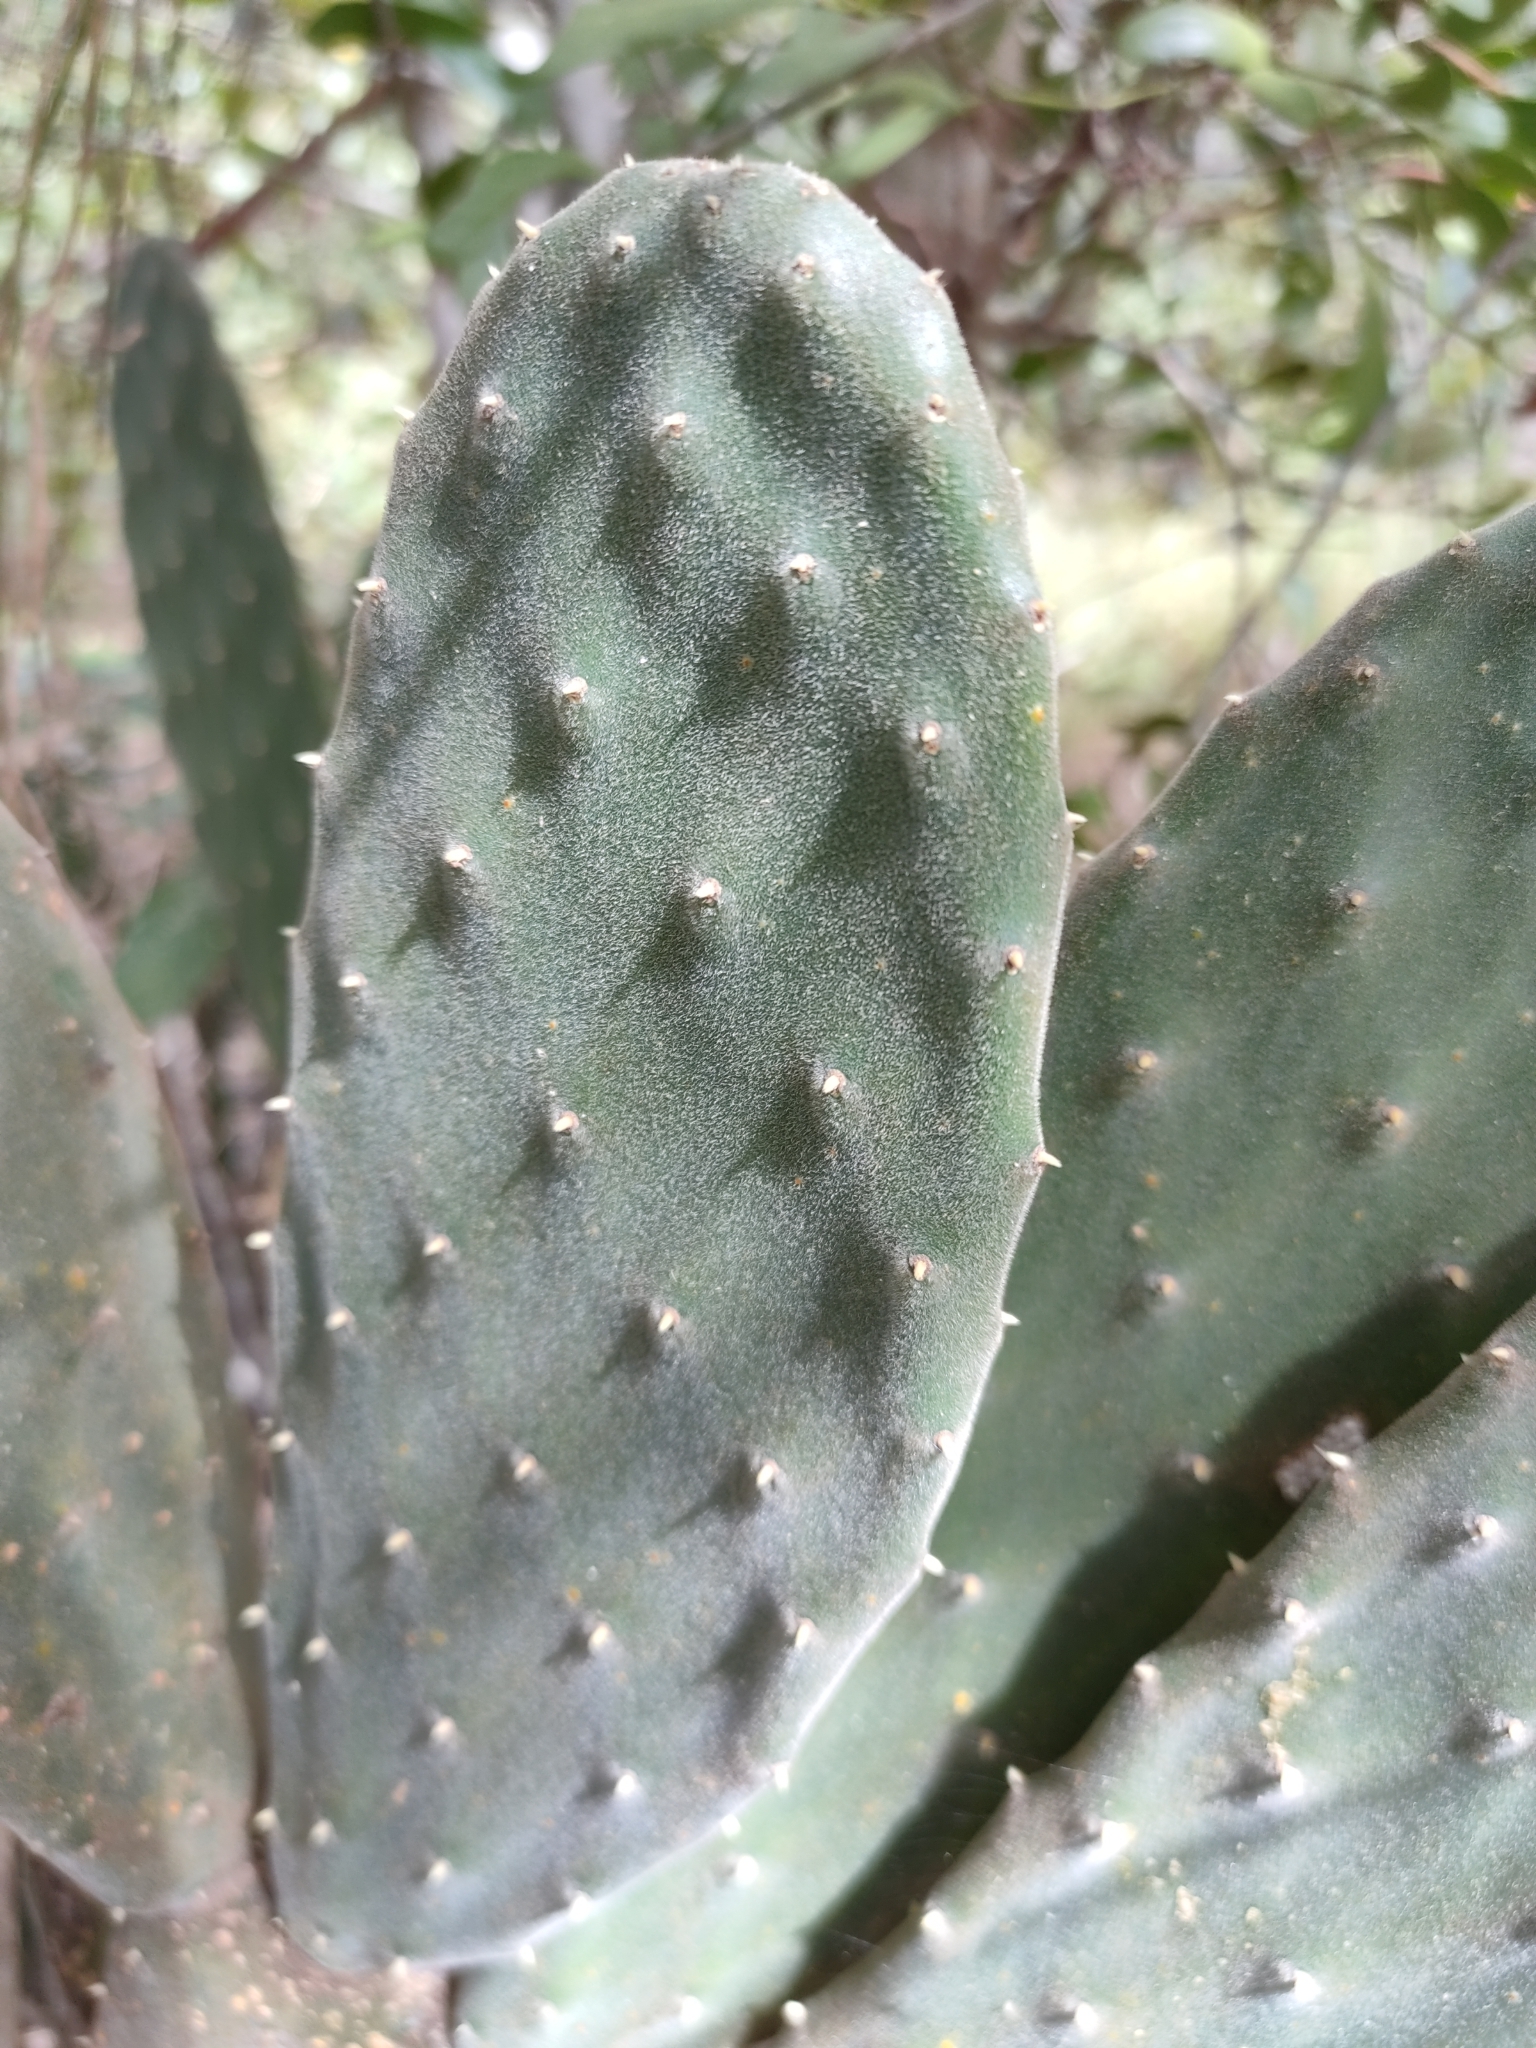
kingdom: Plantae
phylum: Tracheophyta
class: Magnoliopsida
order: Caryophyllales
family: Cactaceae
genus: Opuntia
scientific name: Opuntia tomentosa
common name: Woollyjoint pricklypear
